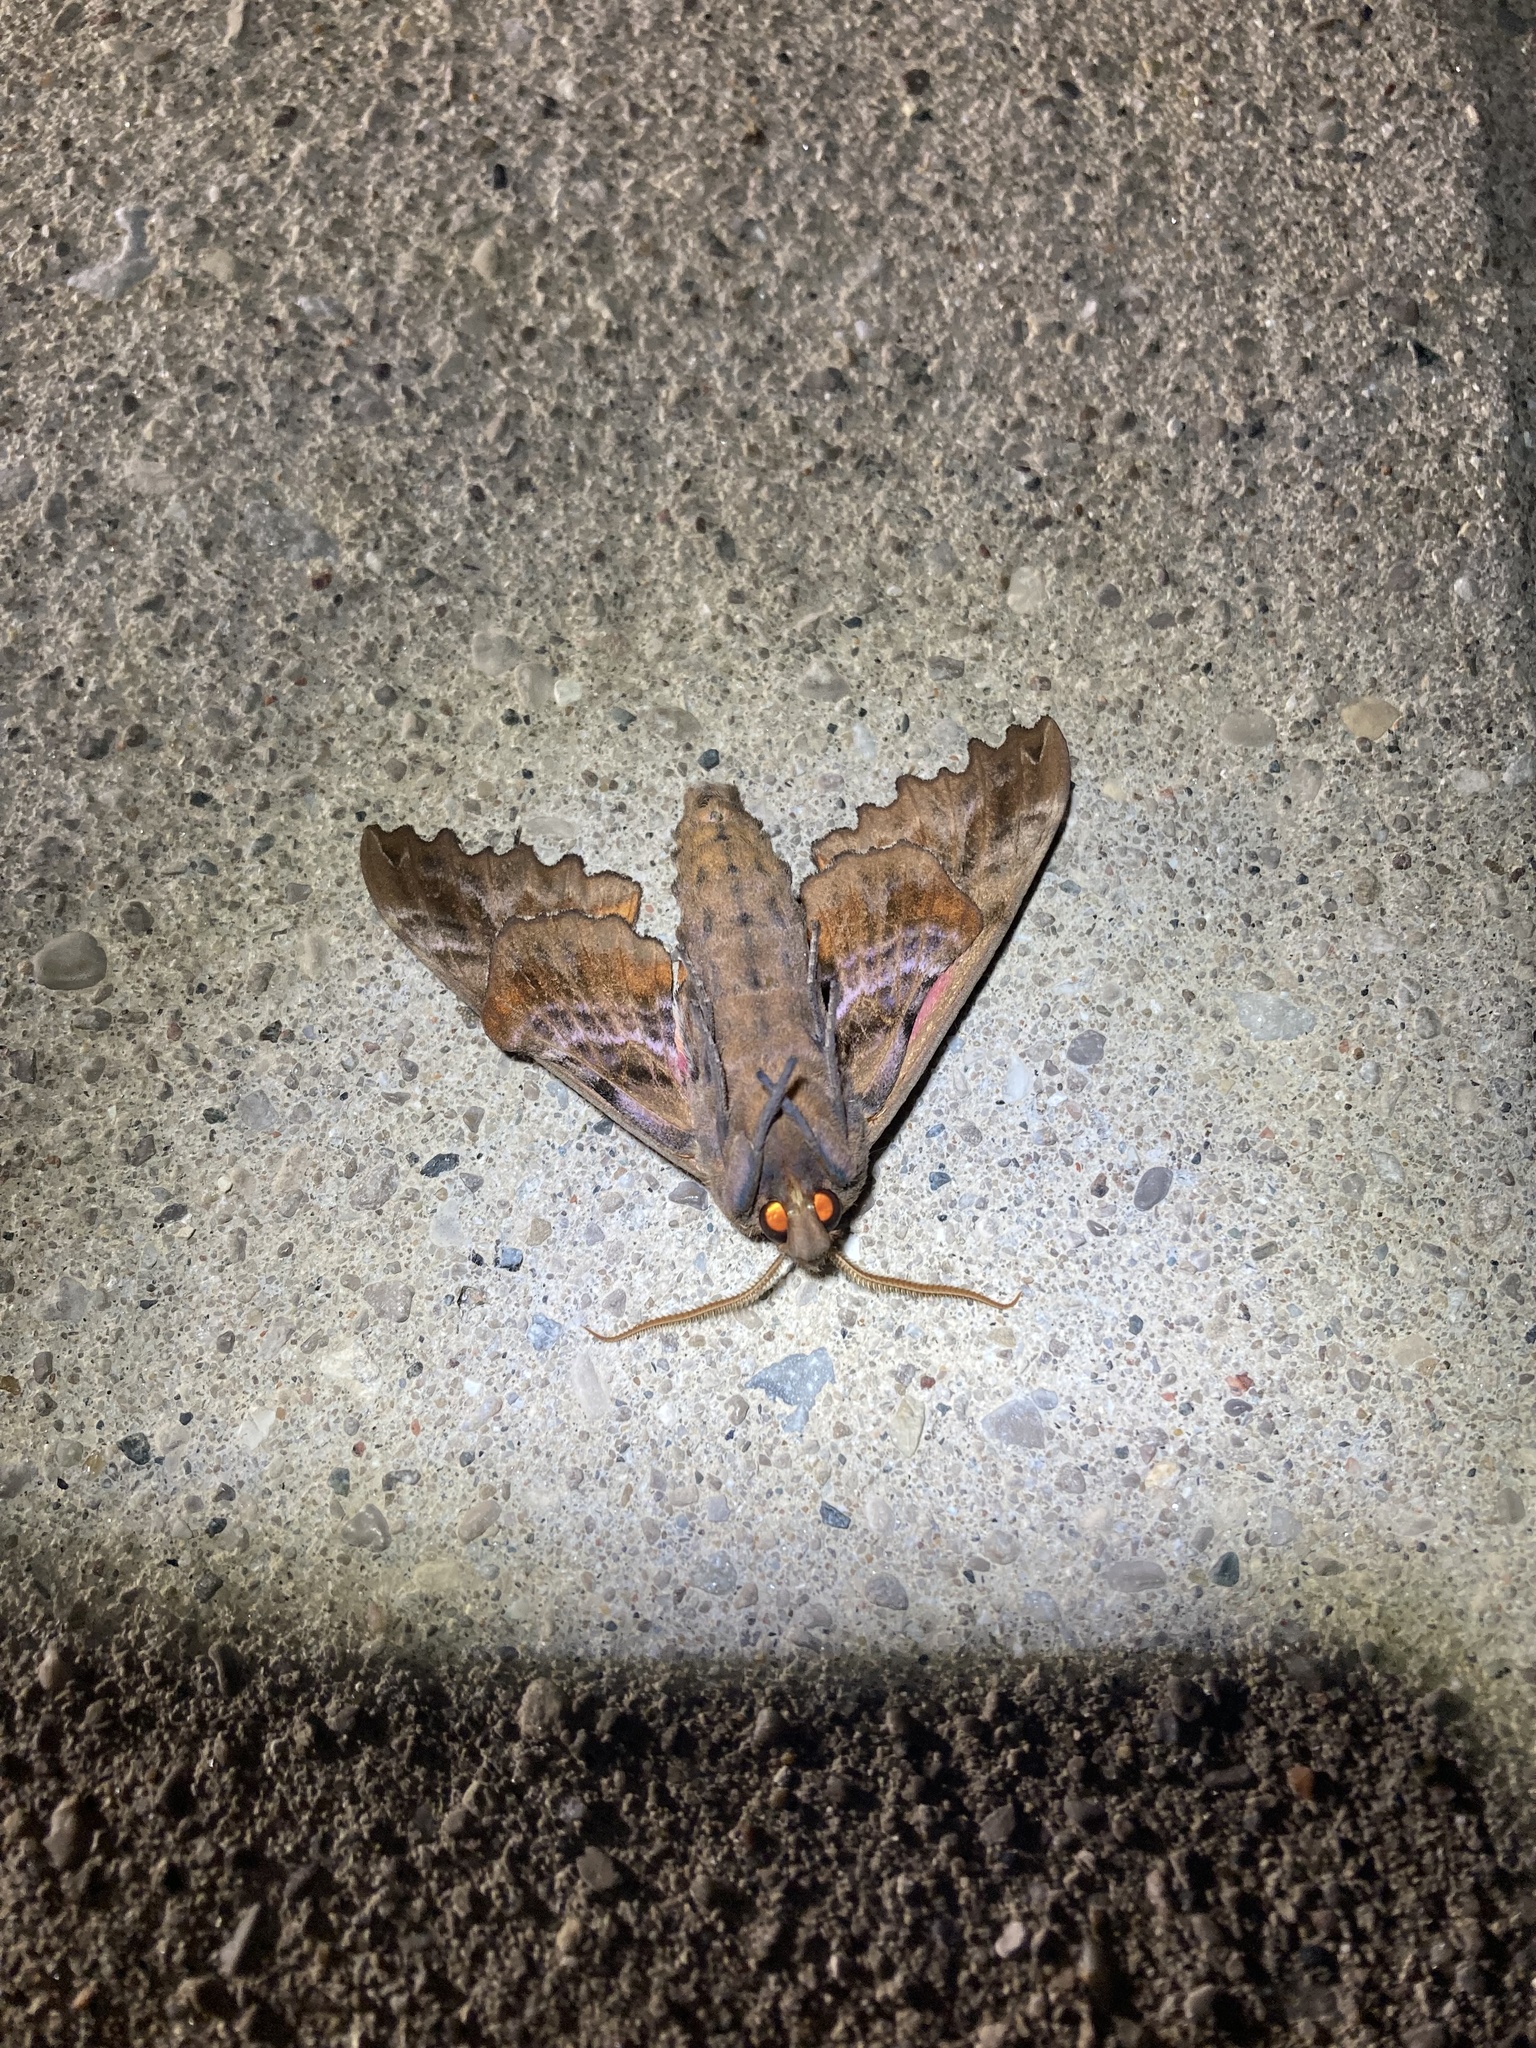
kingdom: Animalia
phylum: Arthropoda
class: Insecta
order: Lepidoptera
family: Sphingidae
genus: Paonias
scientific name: Paonias excaecata
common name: Blind-eyed sphinx
